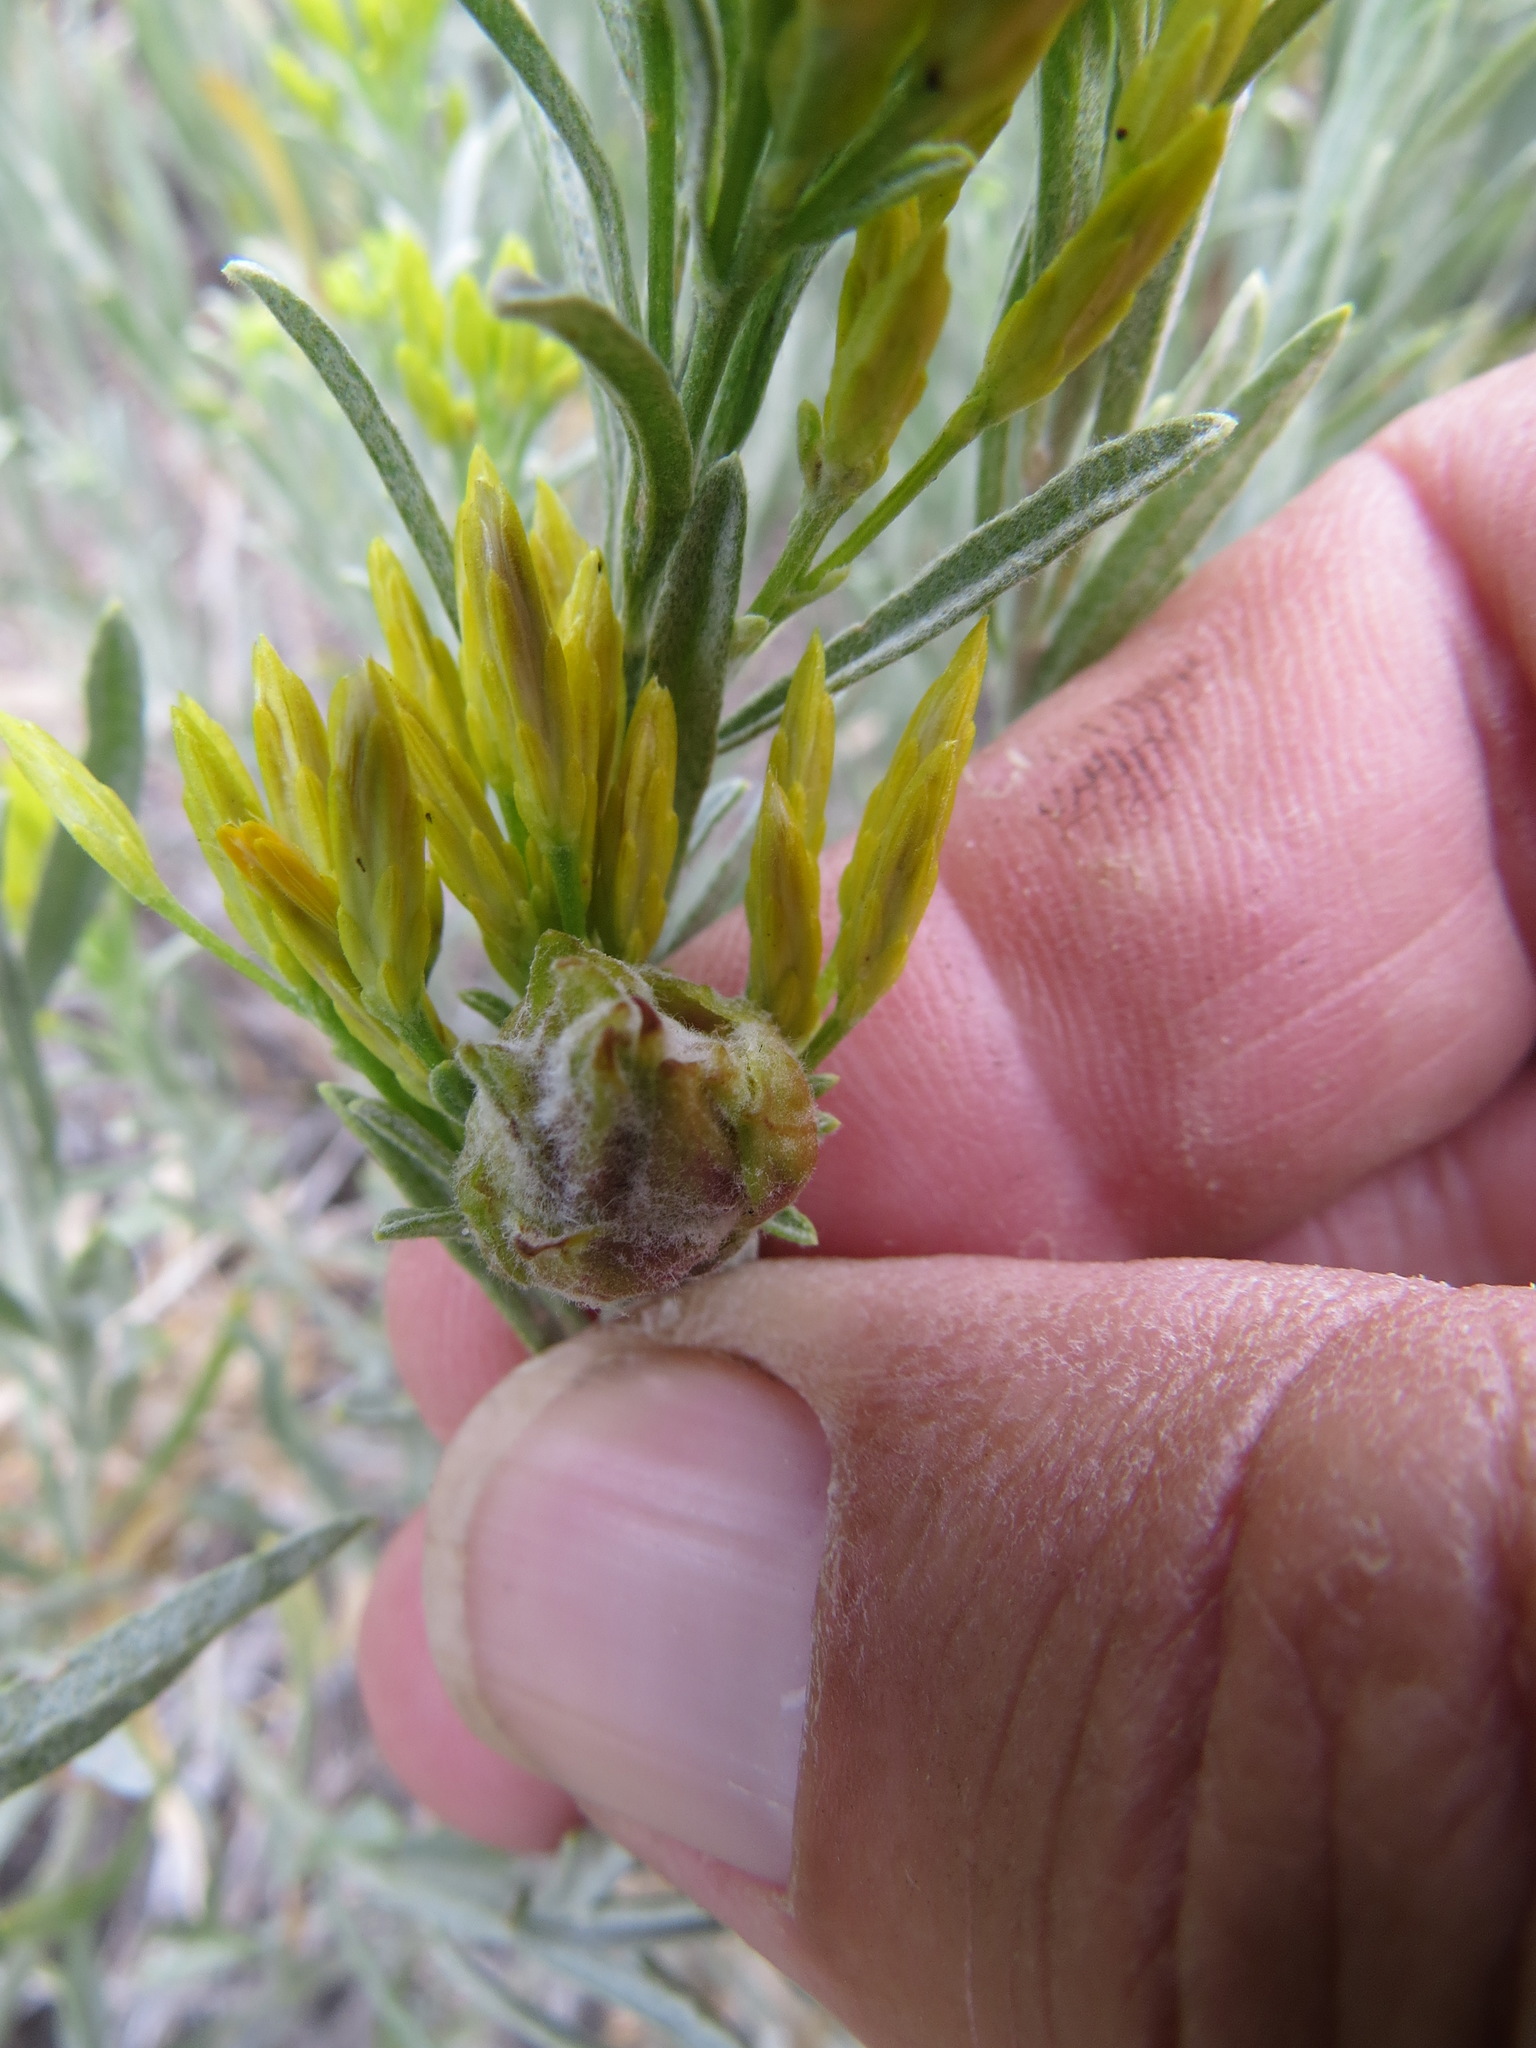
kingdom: Animalia
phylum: Arthropoda
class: Insecta
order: Diptera
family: Tephritidae
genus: Procecidochares
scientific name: Procecidochares minuta
